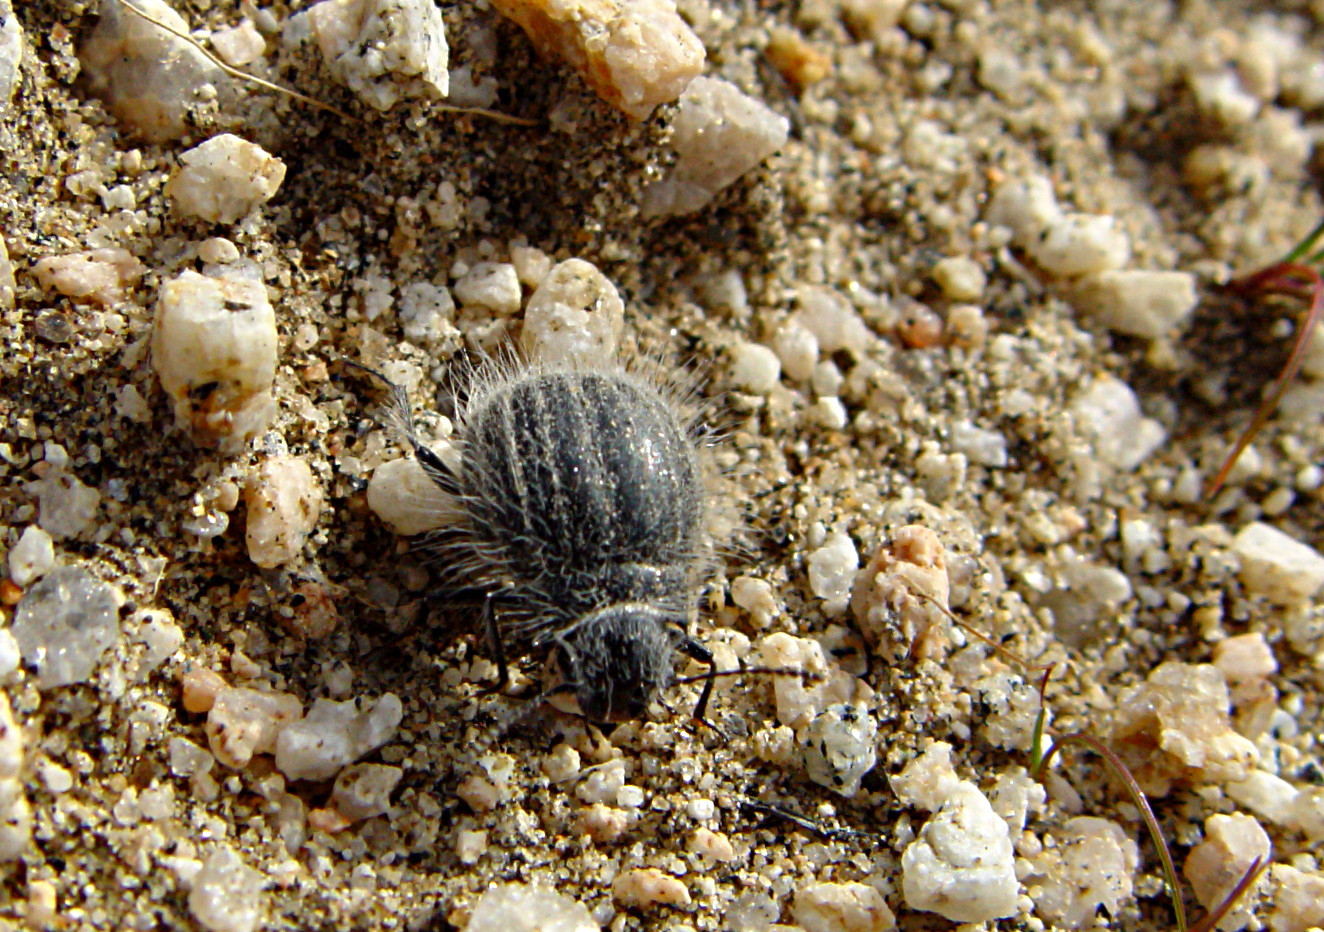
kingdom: Animalia
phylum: Arthropoda
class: Insecta
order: Coleoptera
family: Tenebrionidae
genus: Edrotes
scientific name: Edrotes ventricosus
